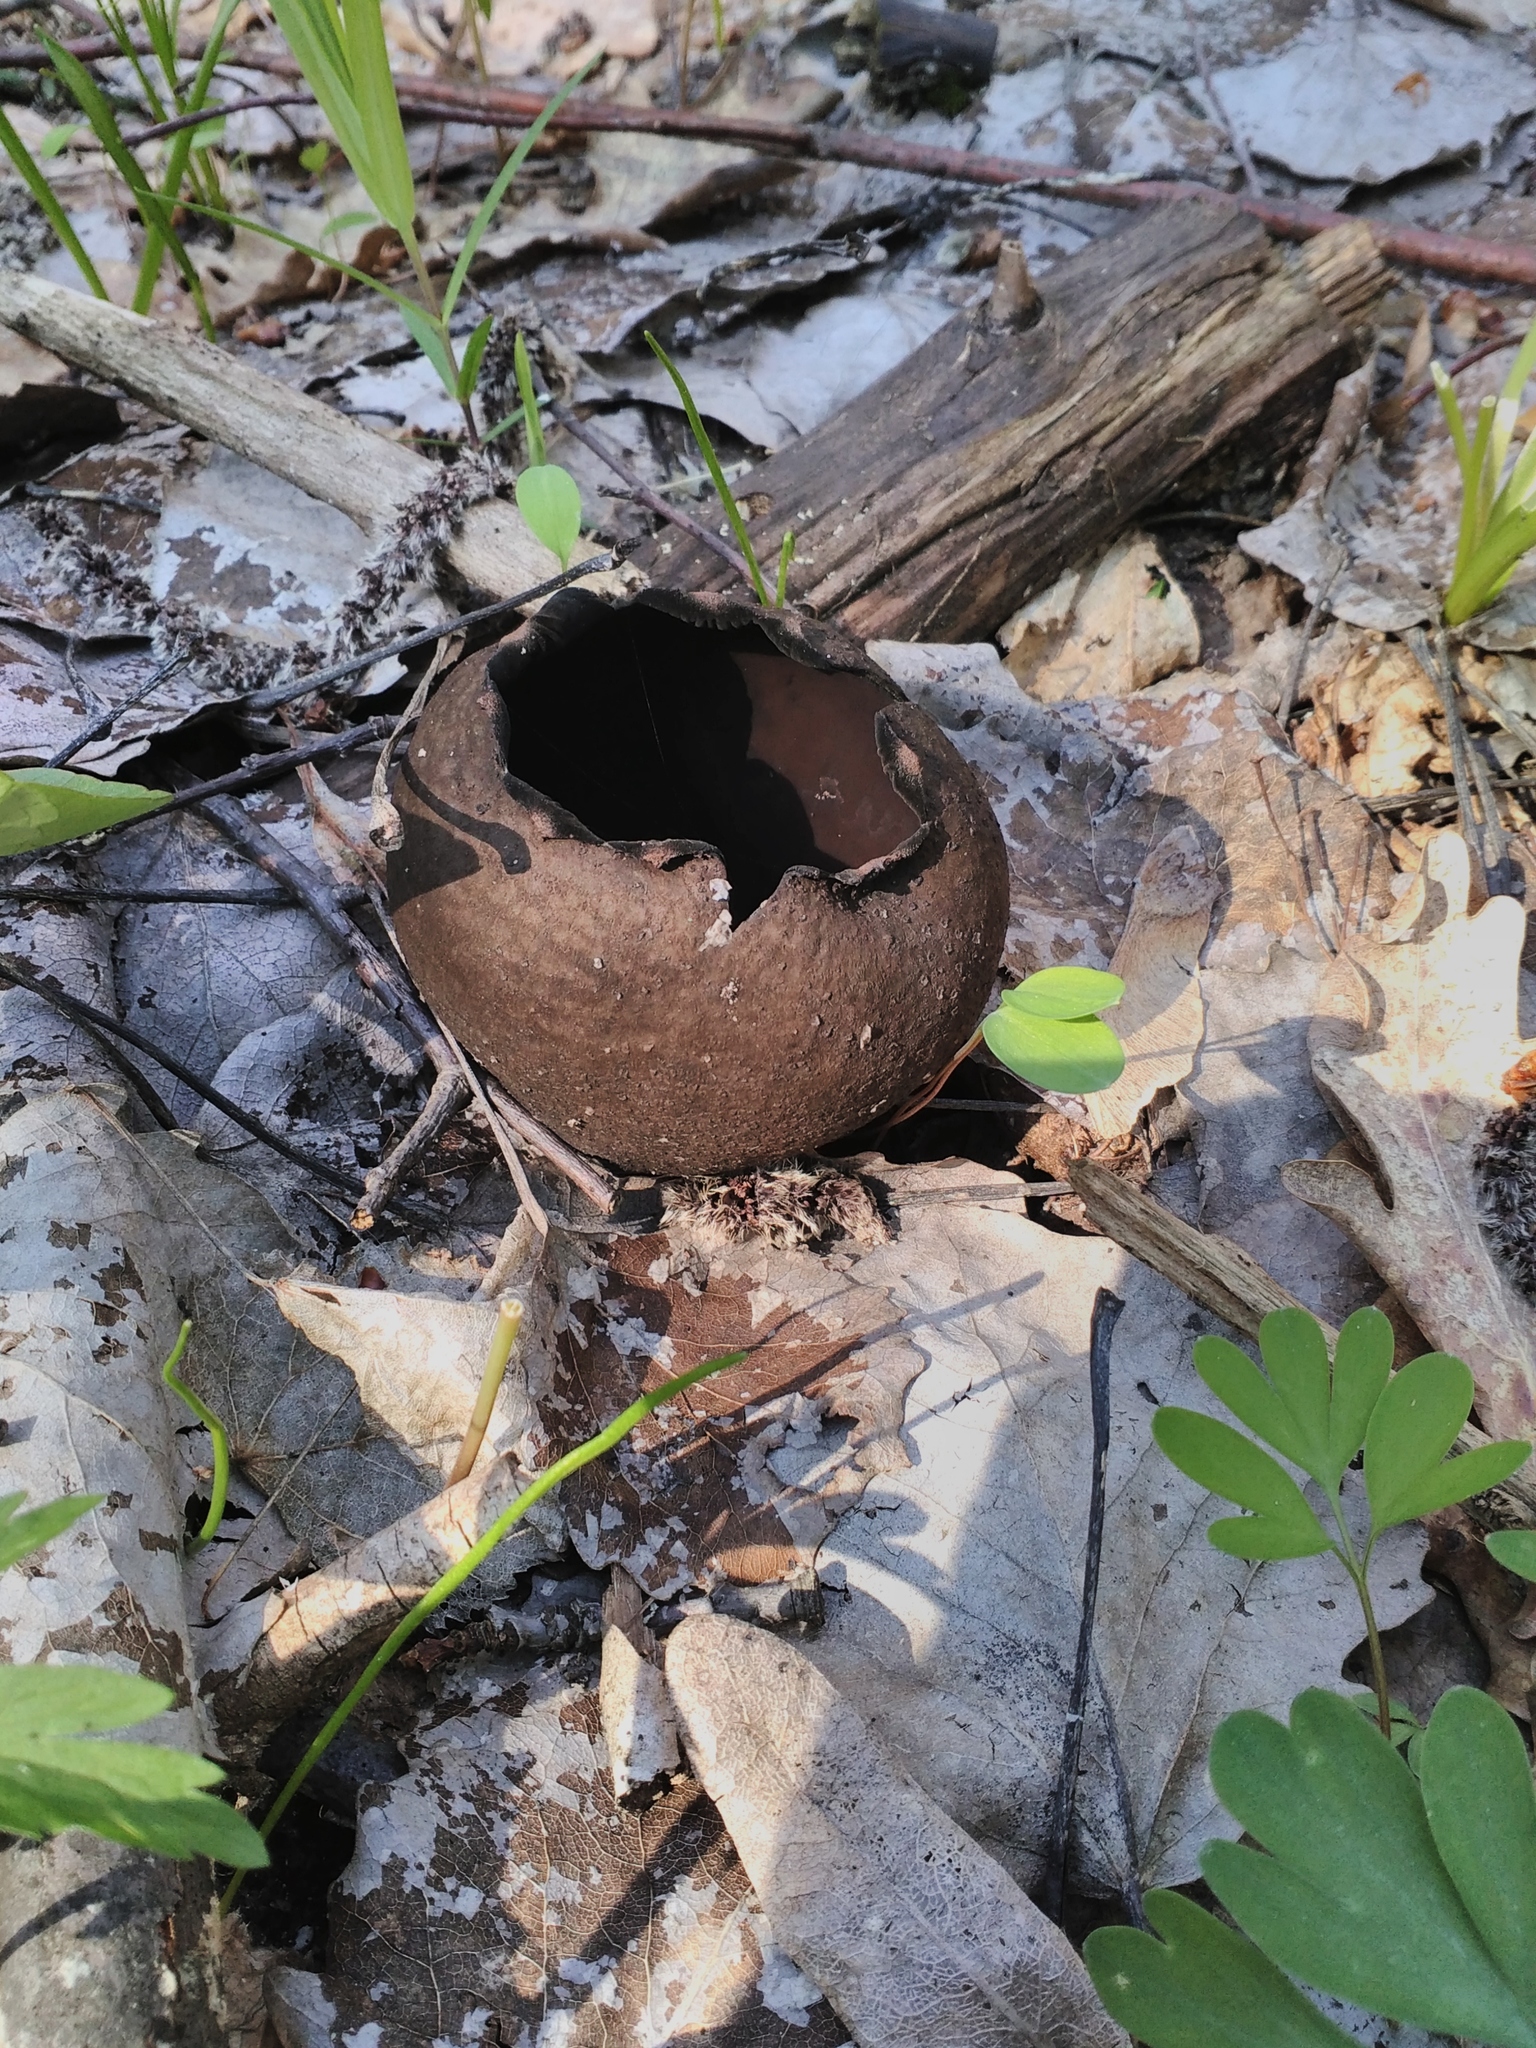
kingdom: Fungi
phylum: Ascomycota
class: Pezizomycetes
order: Pezizales
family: Sarcosomataceae
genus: Urnula
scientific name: Urnula craterium
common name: Devil's urn
